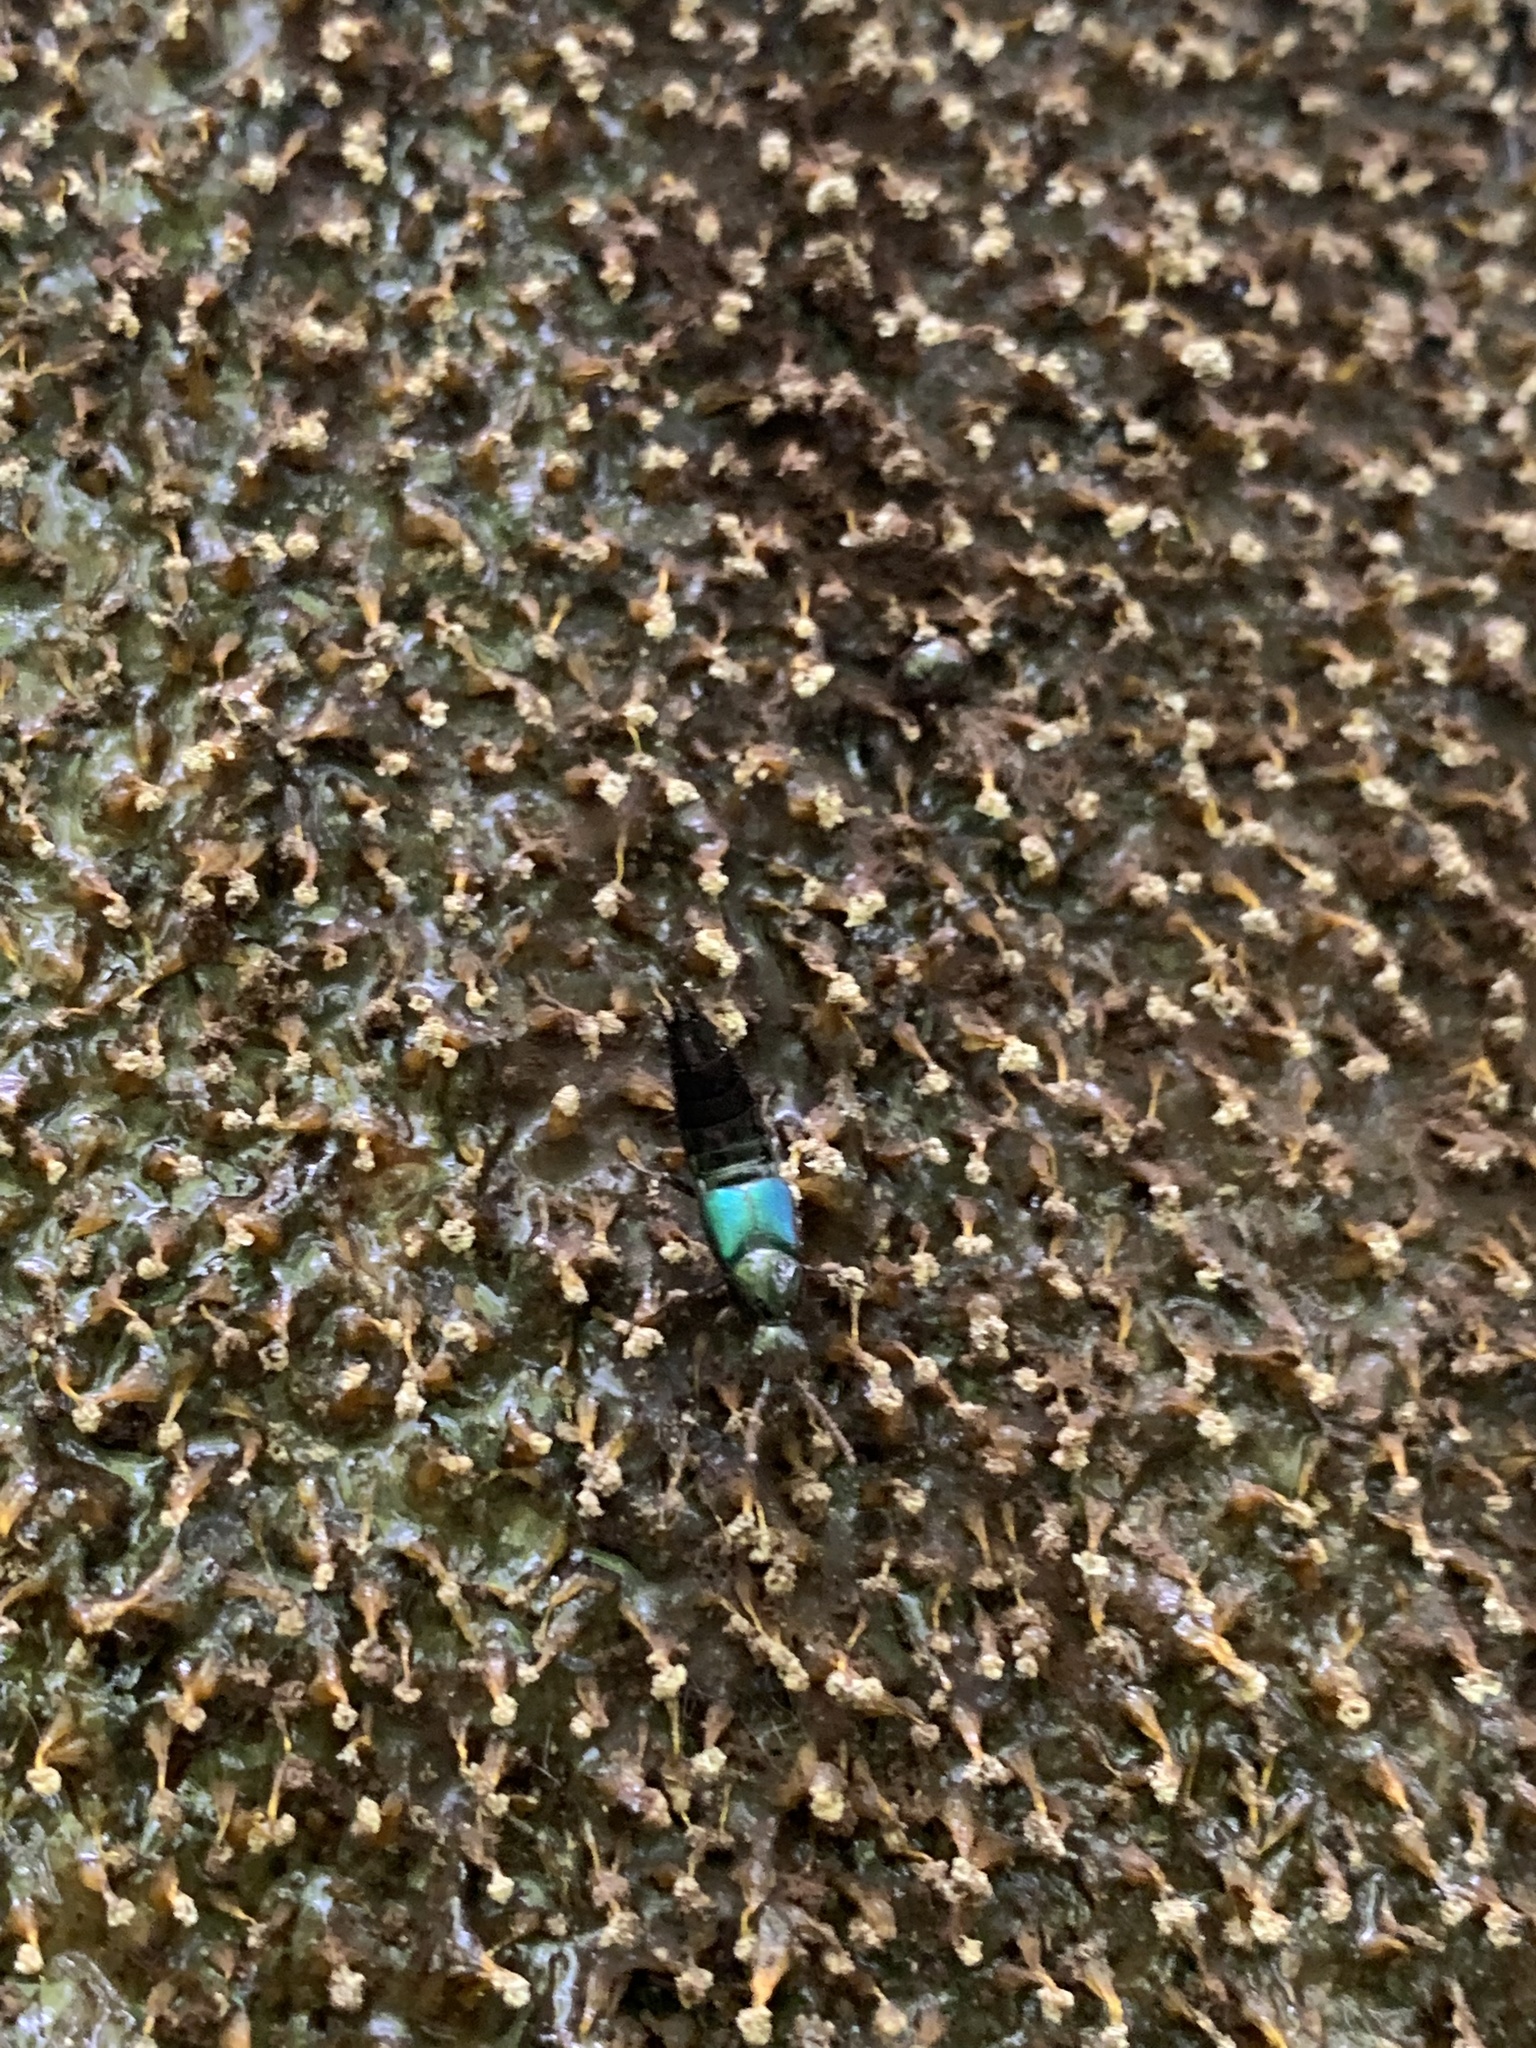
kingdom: Animalia
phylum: Arthropoda
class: Insecta
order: Coleoptera
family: Staphylinidae
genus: Philonthus
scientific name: Philonthus caeruleipennis
